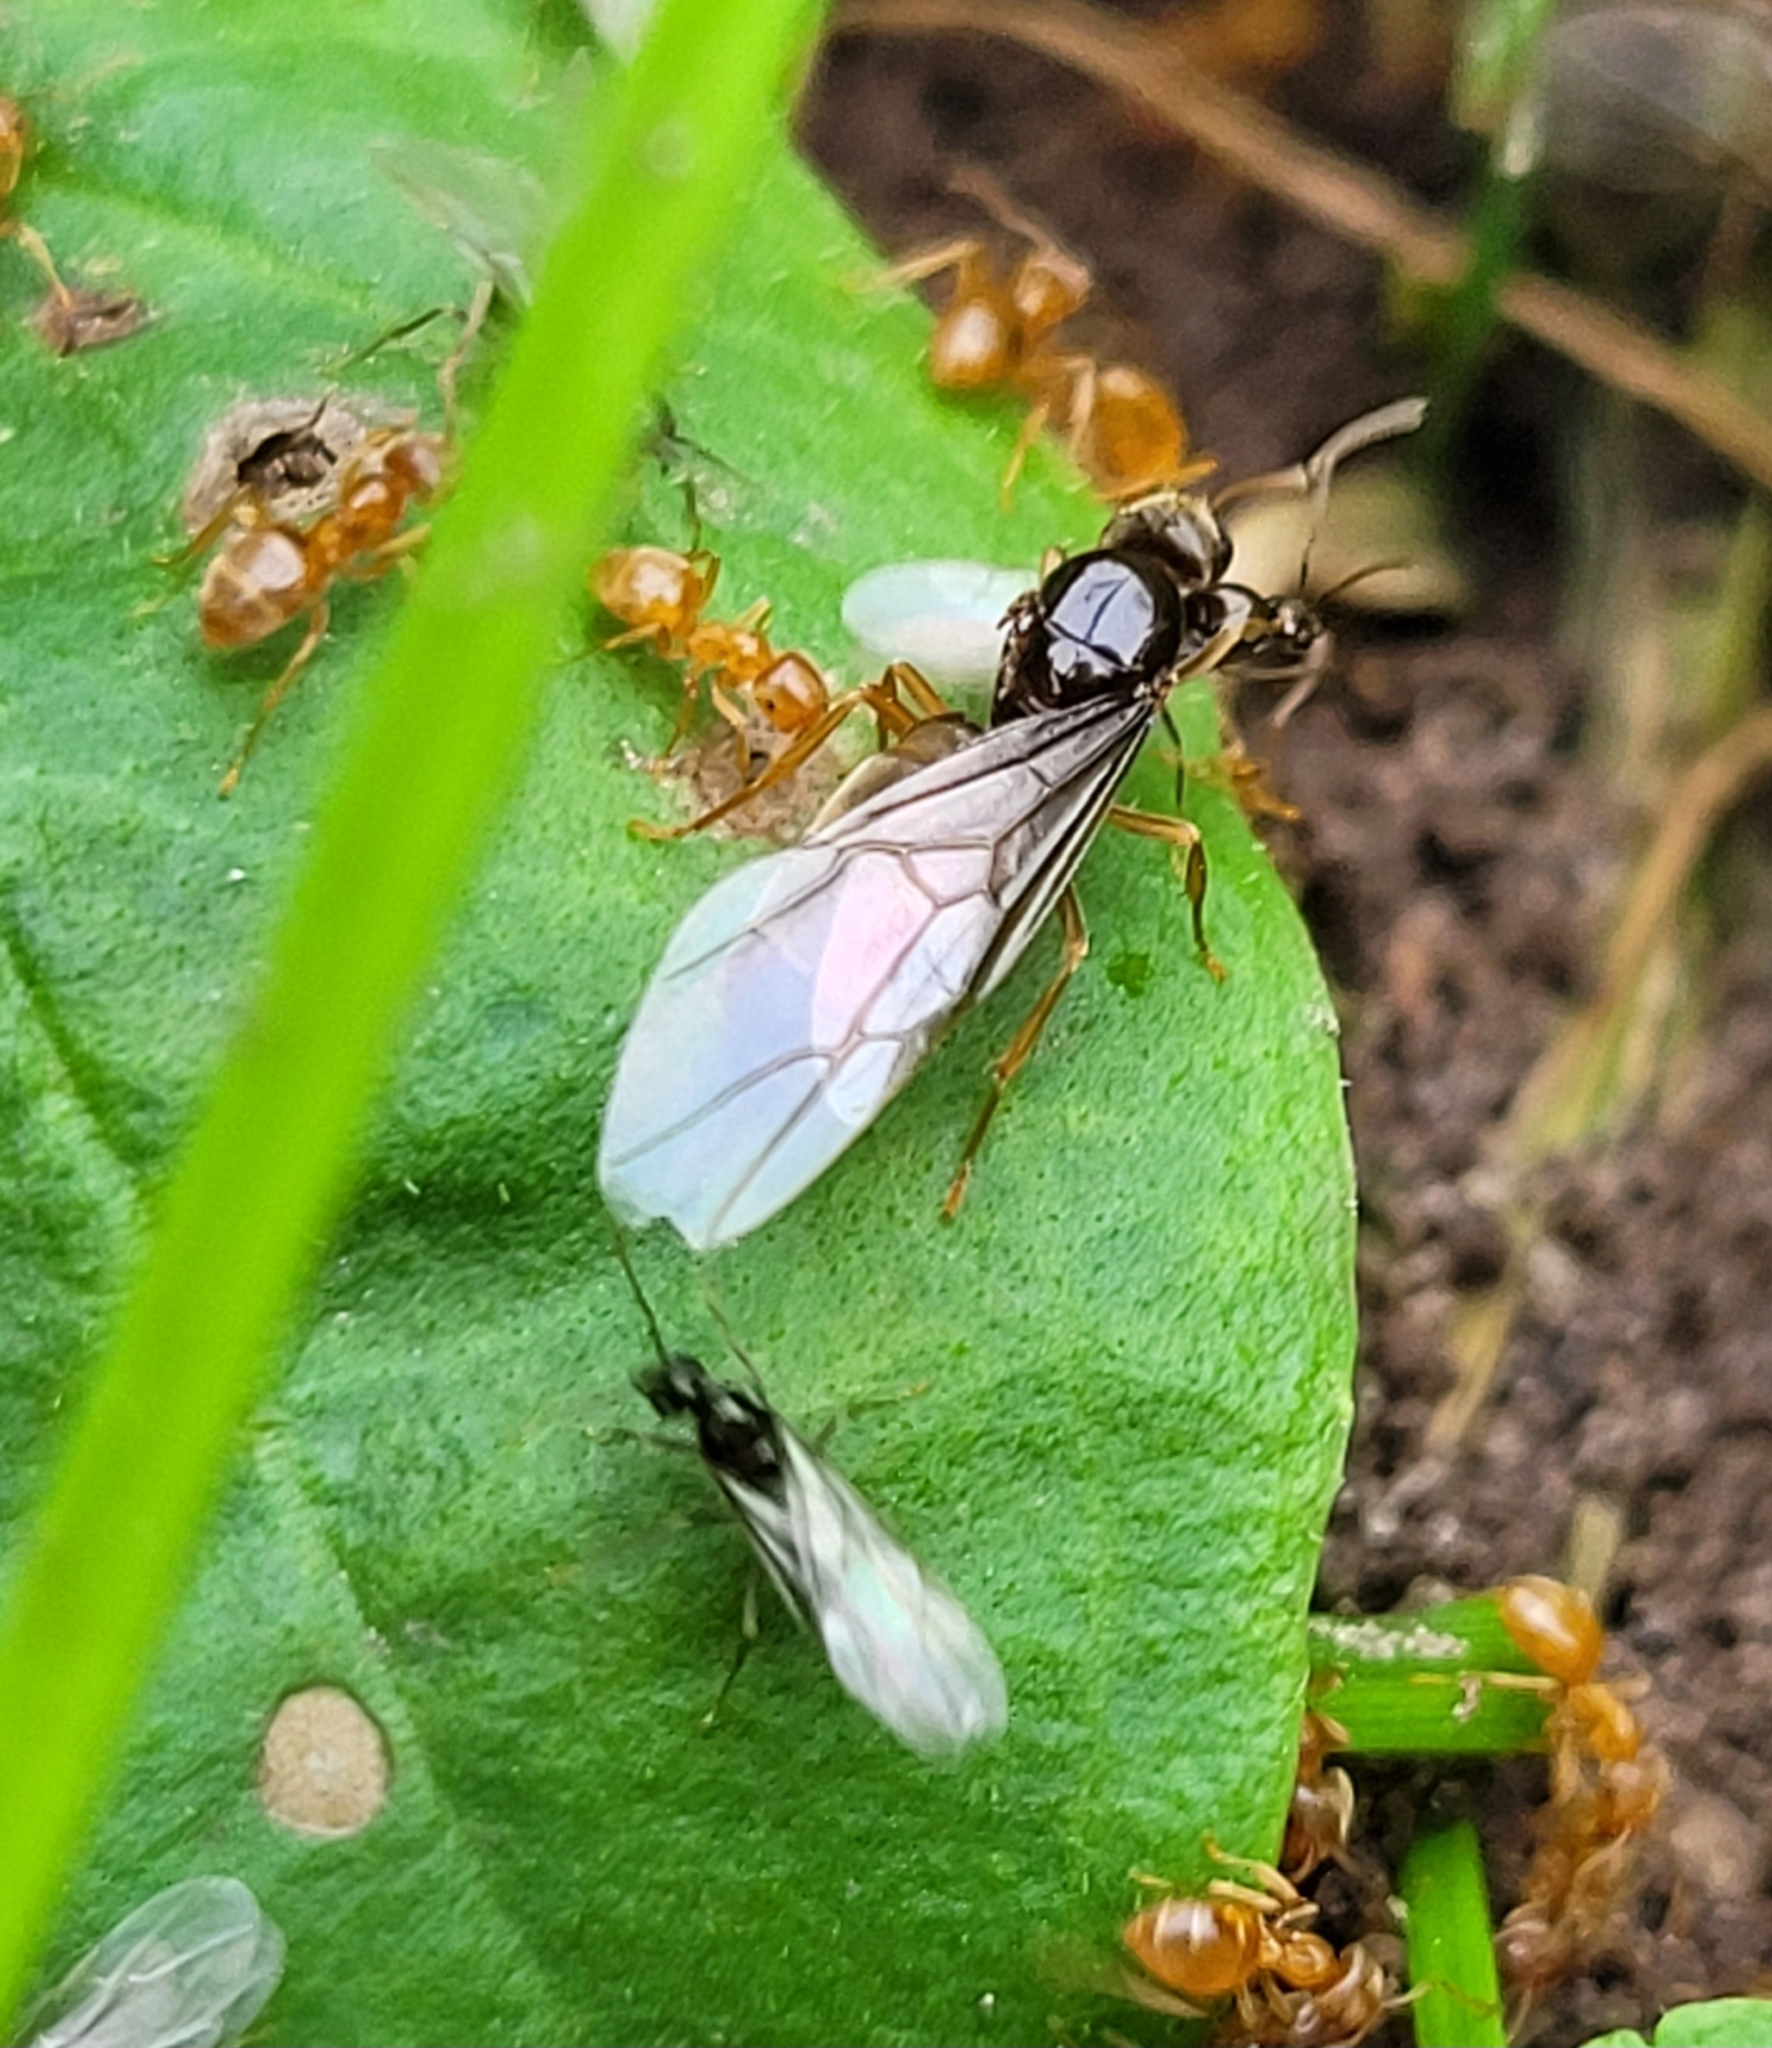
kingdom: Animalia
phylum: Arthropoda
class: Insecta
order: Hymenoptera
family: Formicidae
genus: Lasius
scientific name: Lasius flavus
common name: Blond field ant
